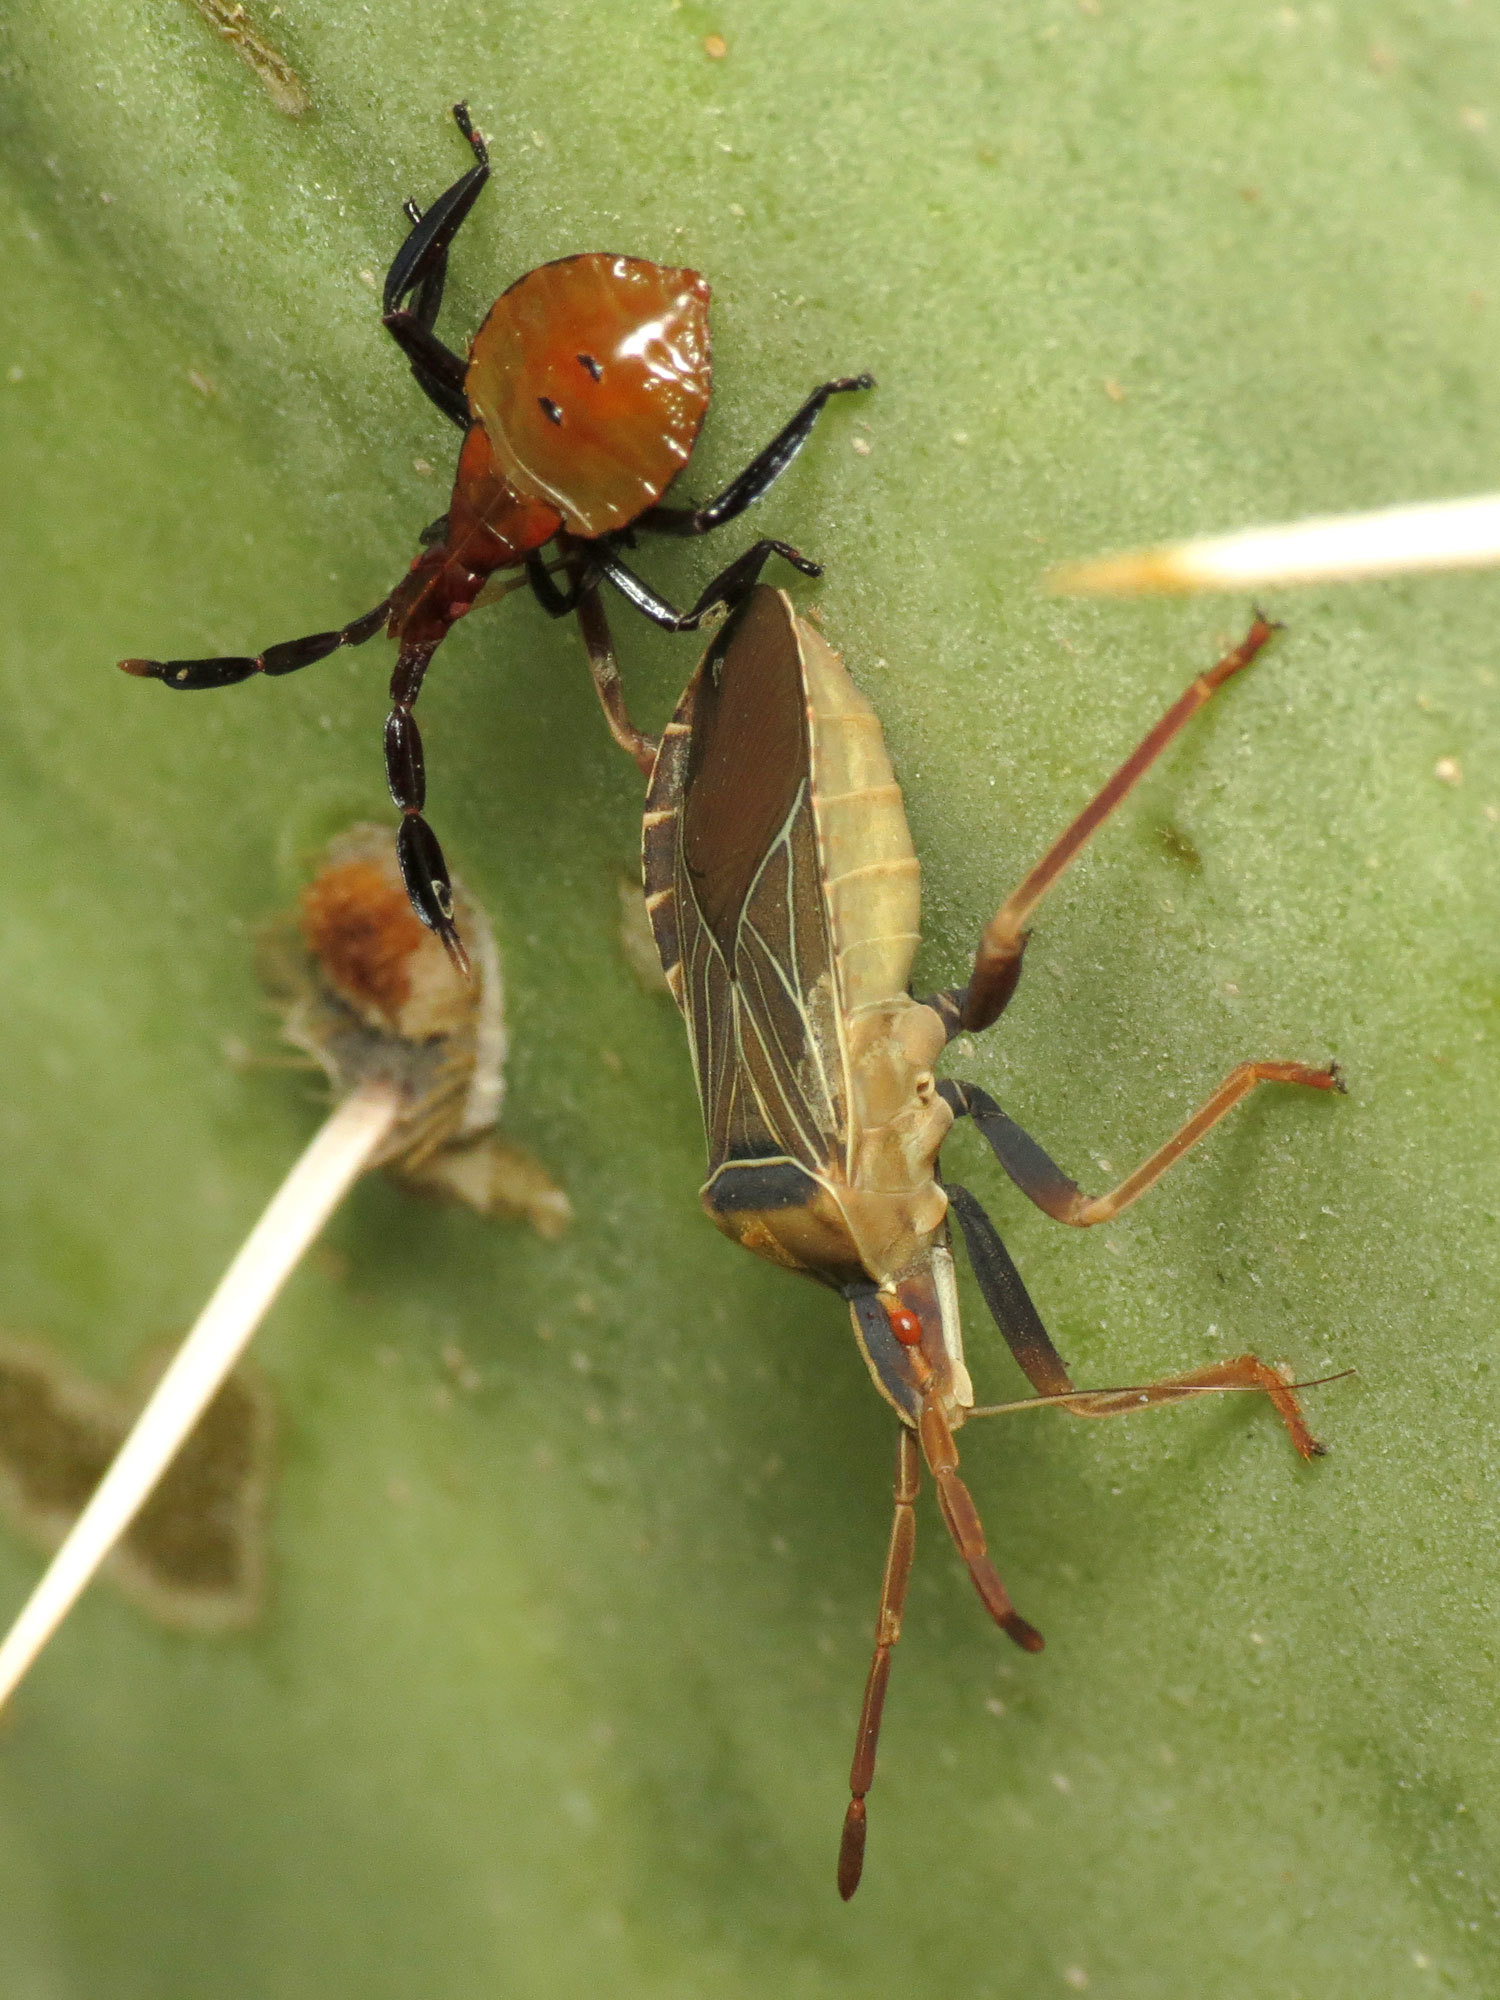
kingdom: Animalia
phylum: Arthropoda
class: Insecta
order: Hemiptera
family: Coreidae
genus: Chelinidea
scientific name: Chelinidea vittiger
